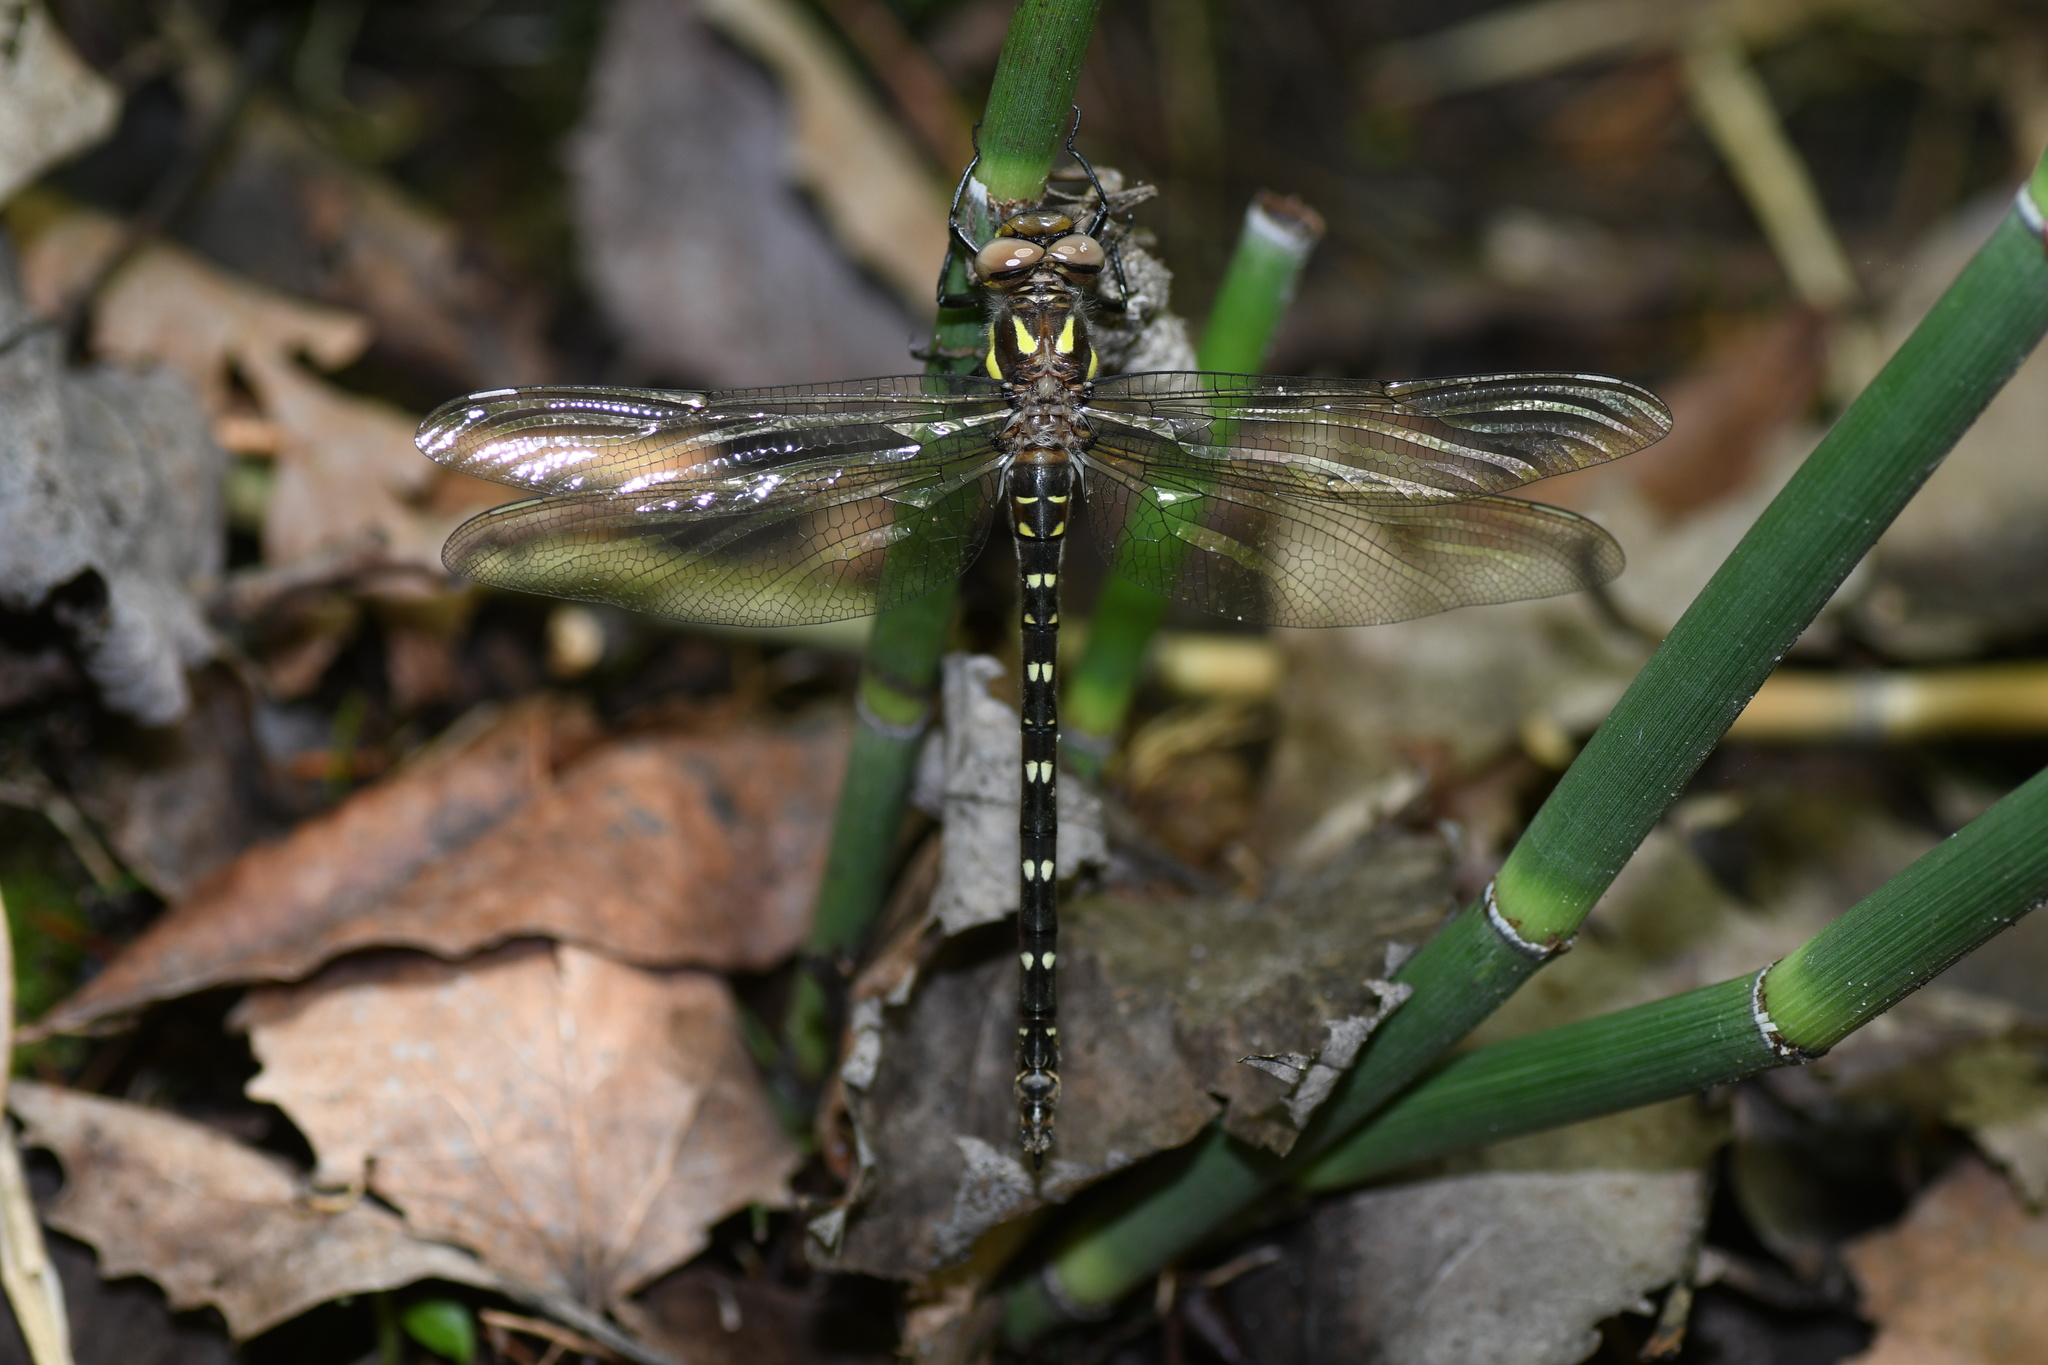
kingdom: Animalia
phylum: Arthropoda
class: Insecta
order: Odonata
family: Cordulegastridae
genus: Cordulegaster
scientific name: Cordulegaster maculata
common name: Twin-spotted spiketail
